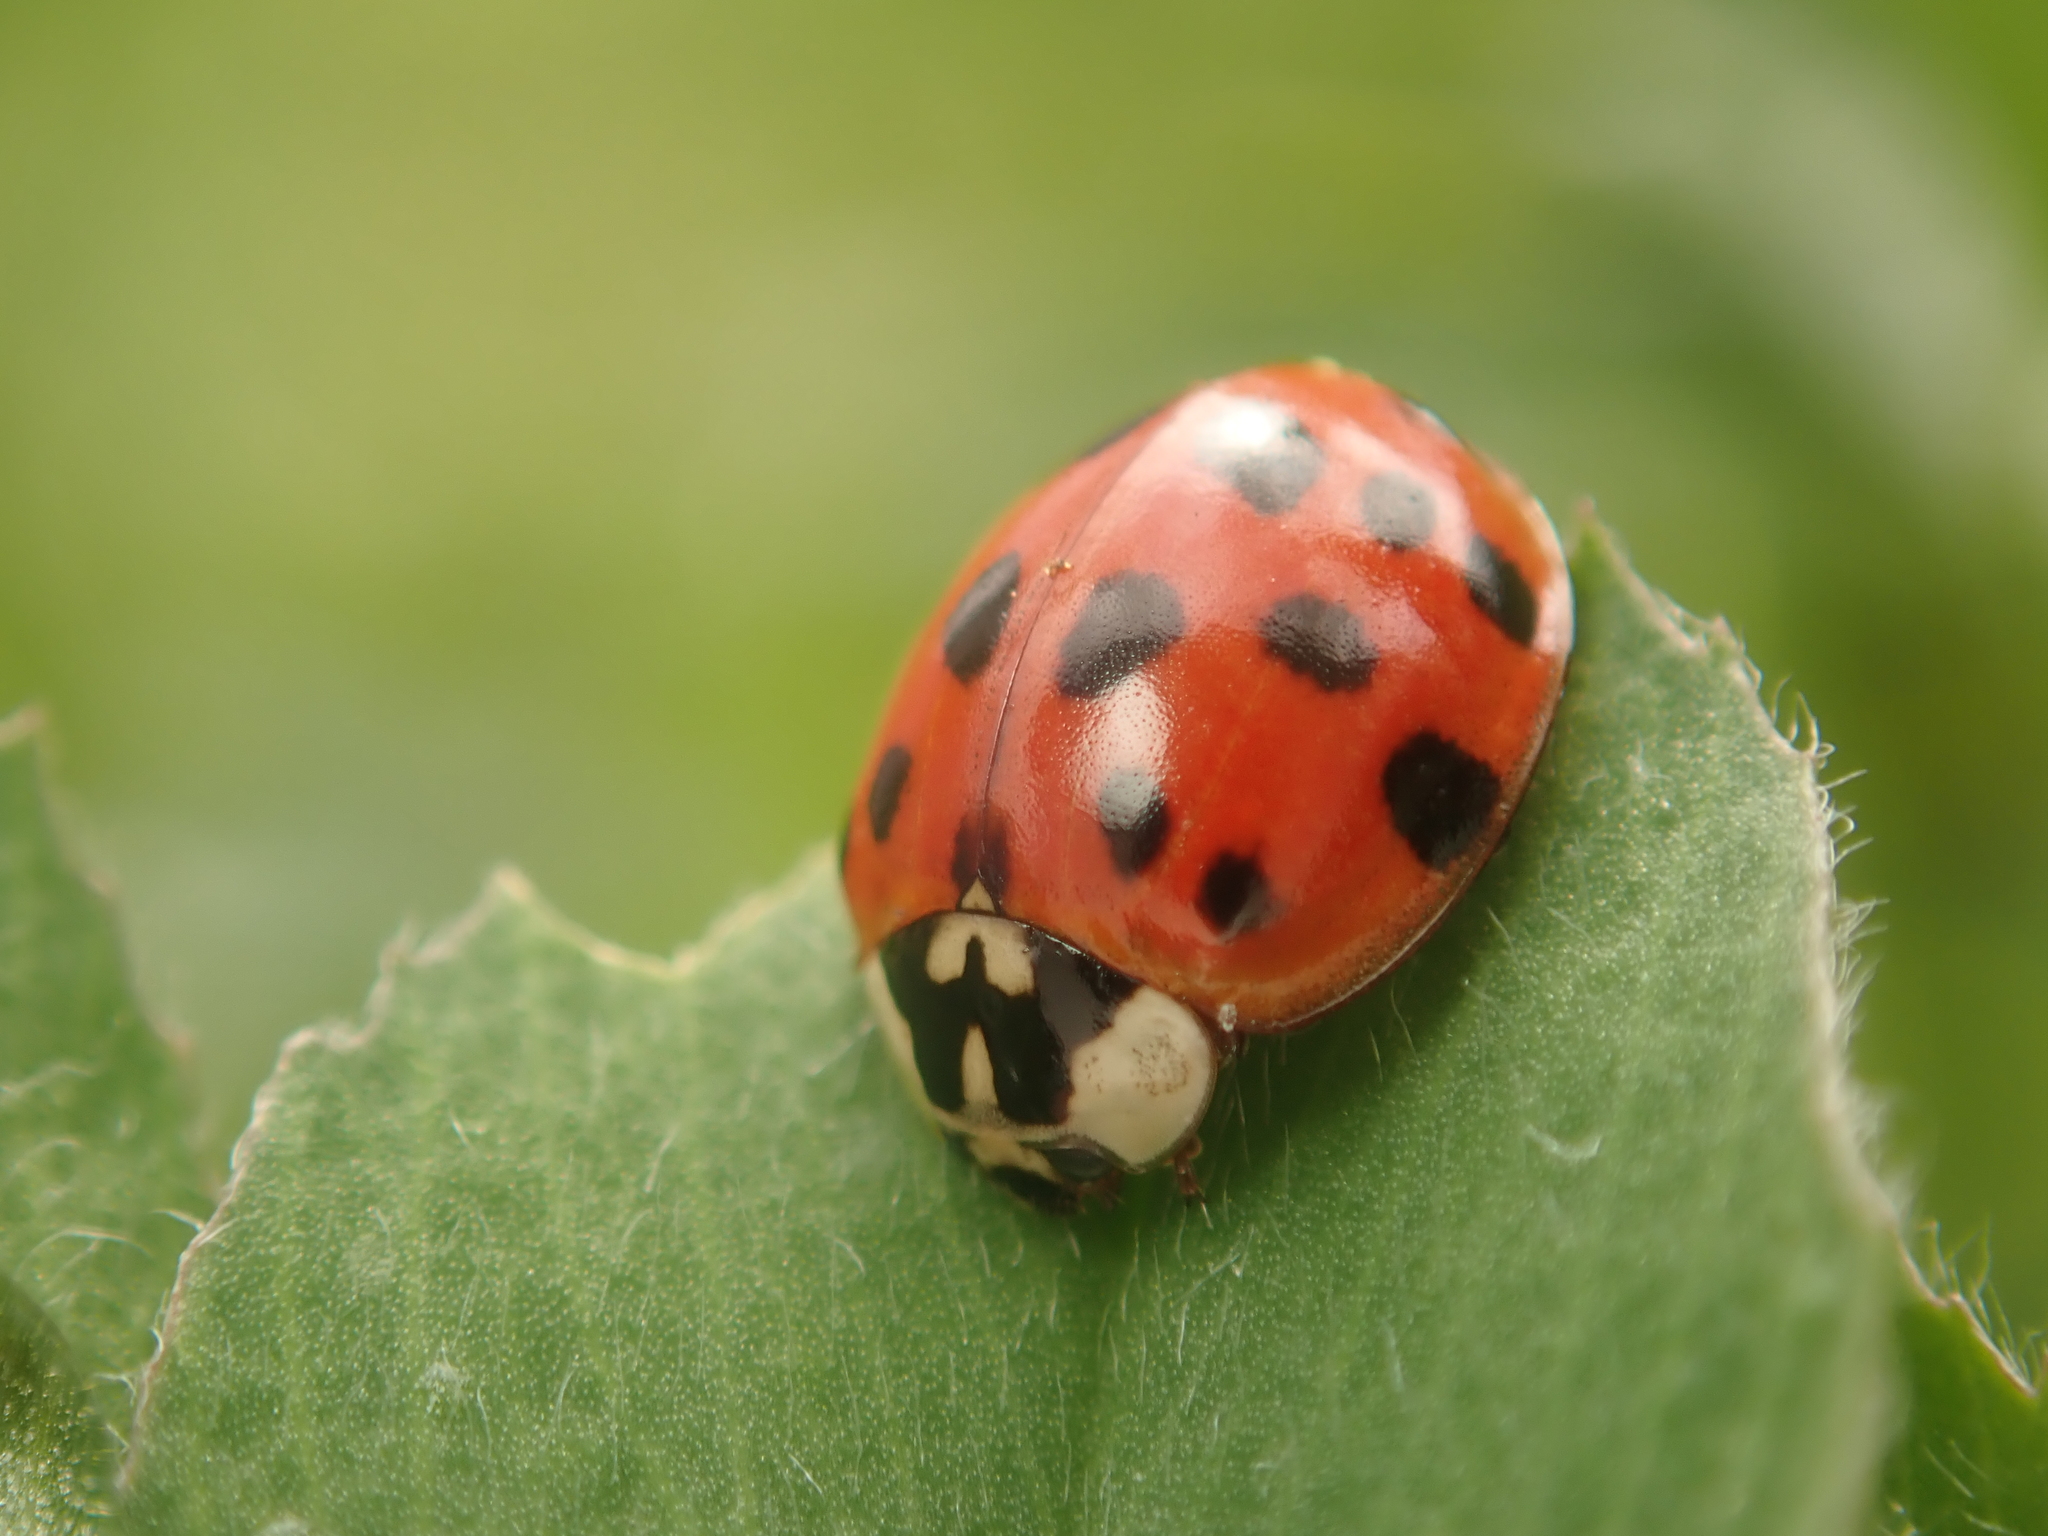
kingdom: Animalia
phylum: Arthropoda
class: Insecta
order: Coleoptera
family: Coccinellidae
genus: Harmonia
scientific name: Harmonia axyridis
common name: Harlequin ladybird
